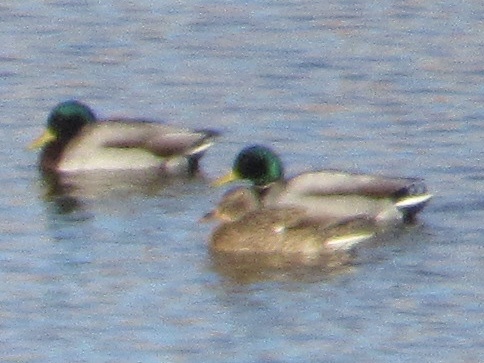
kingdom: Animalia
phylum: Chordata
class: Aves
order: Anseriformes
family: Anatidae
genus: Anas
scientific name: Anas platyrhynchos
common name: Mallard
